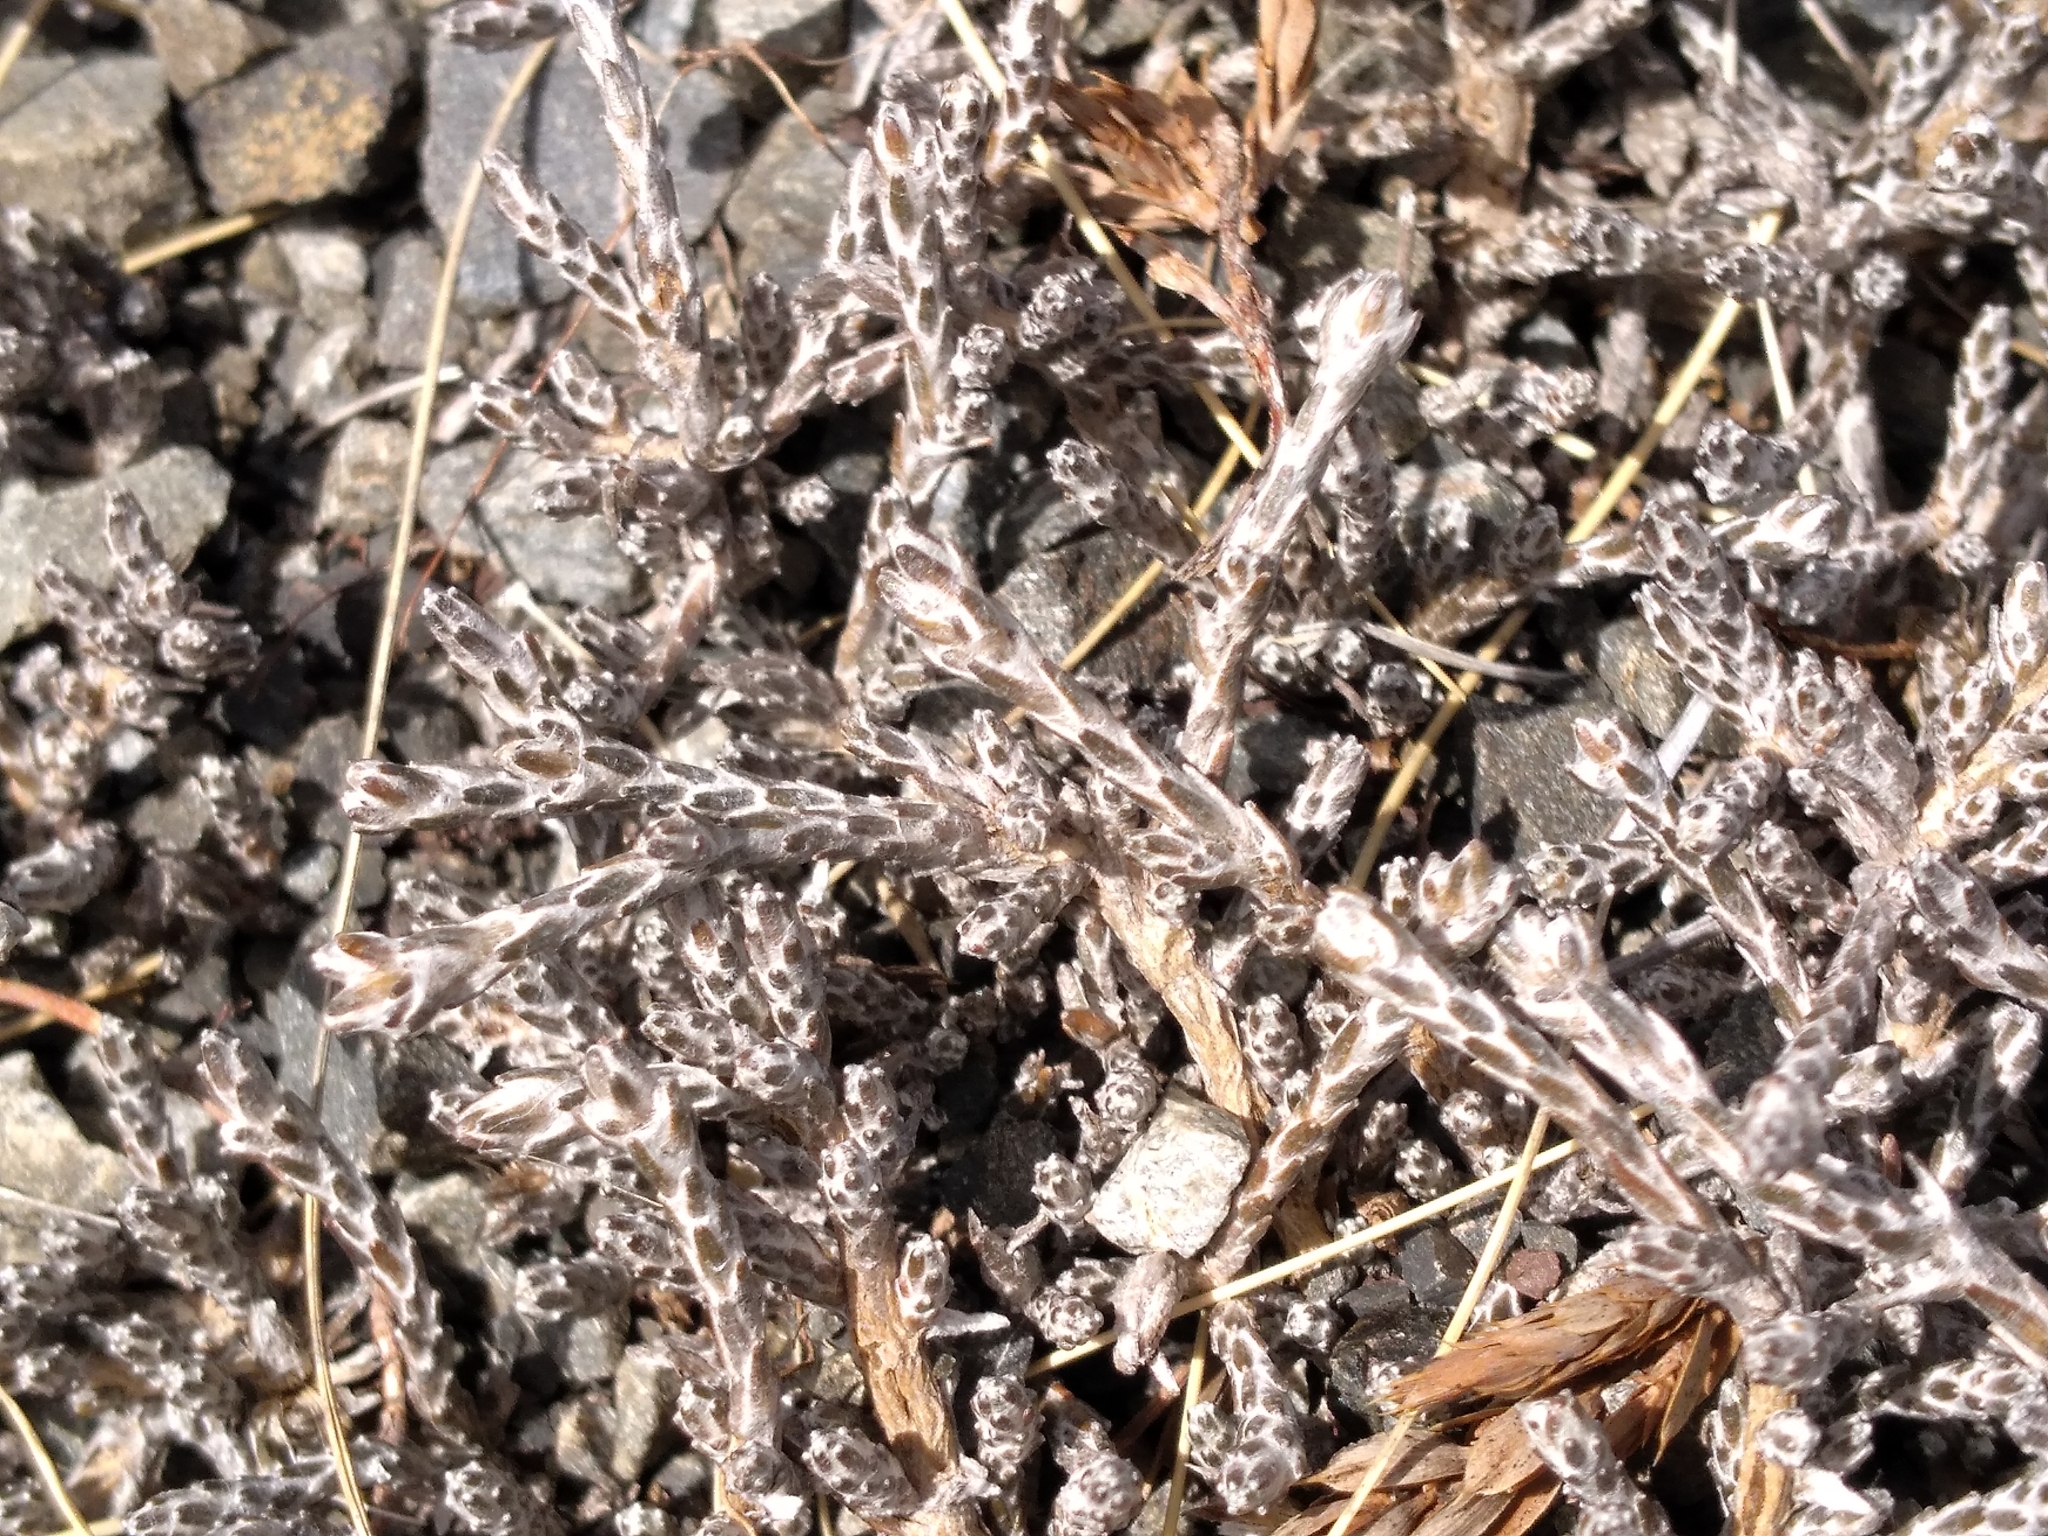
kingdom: Plantae
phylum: Tracheophyta
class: Magnoliopsida
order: Asterales
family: Asteraceae
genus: Ozothamnus
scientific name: Ozothamnus depressus
